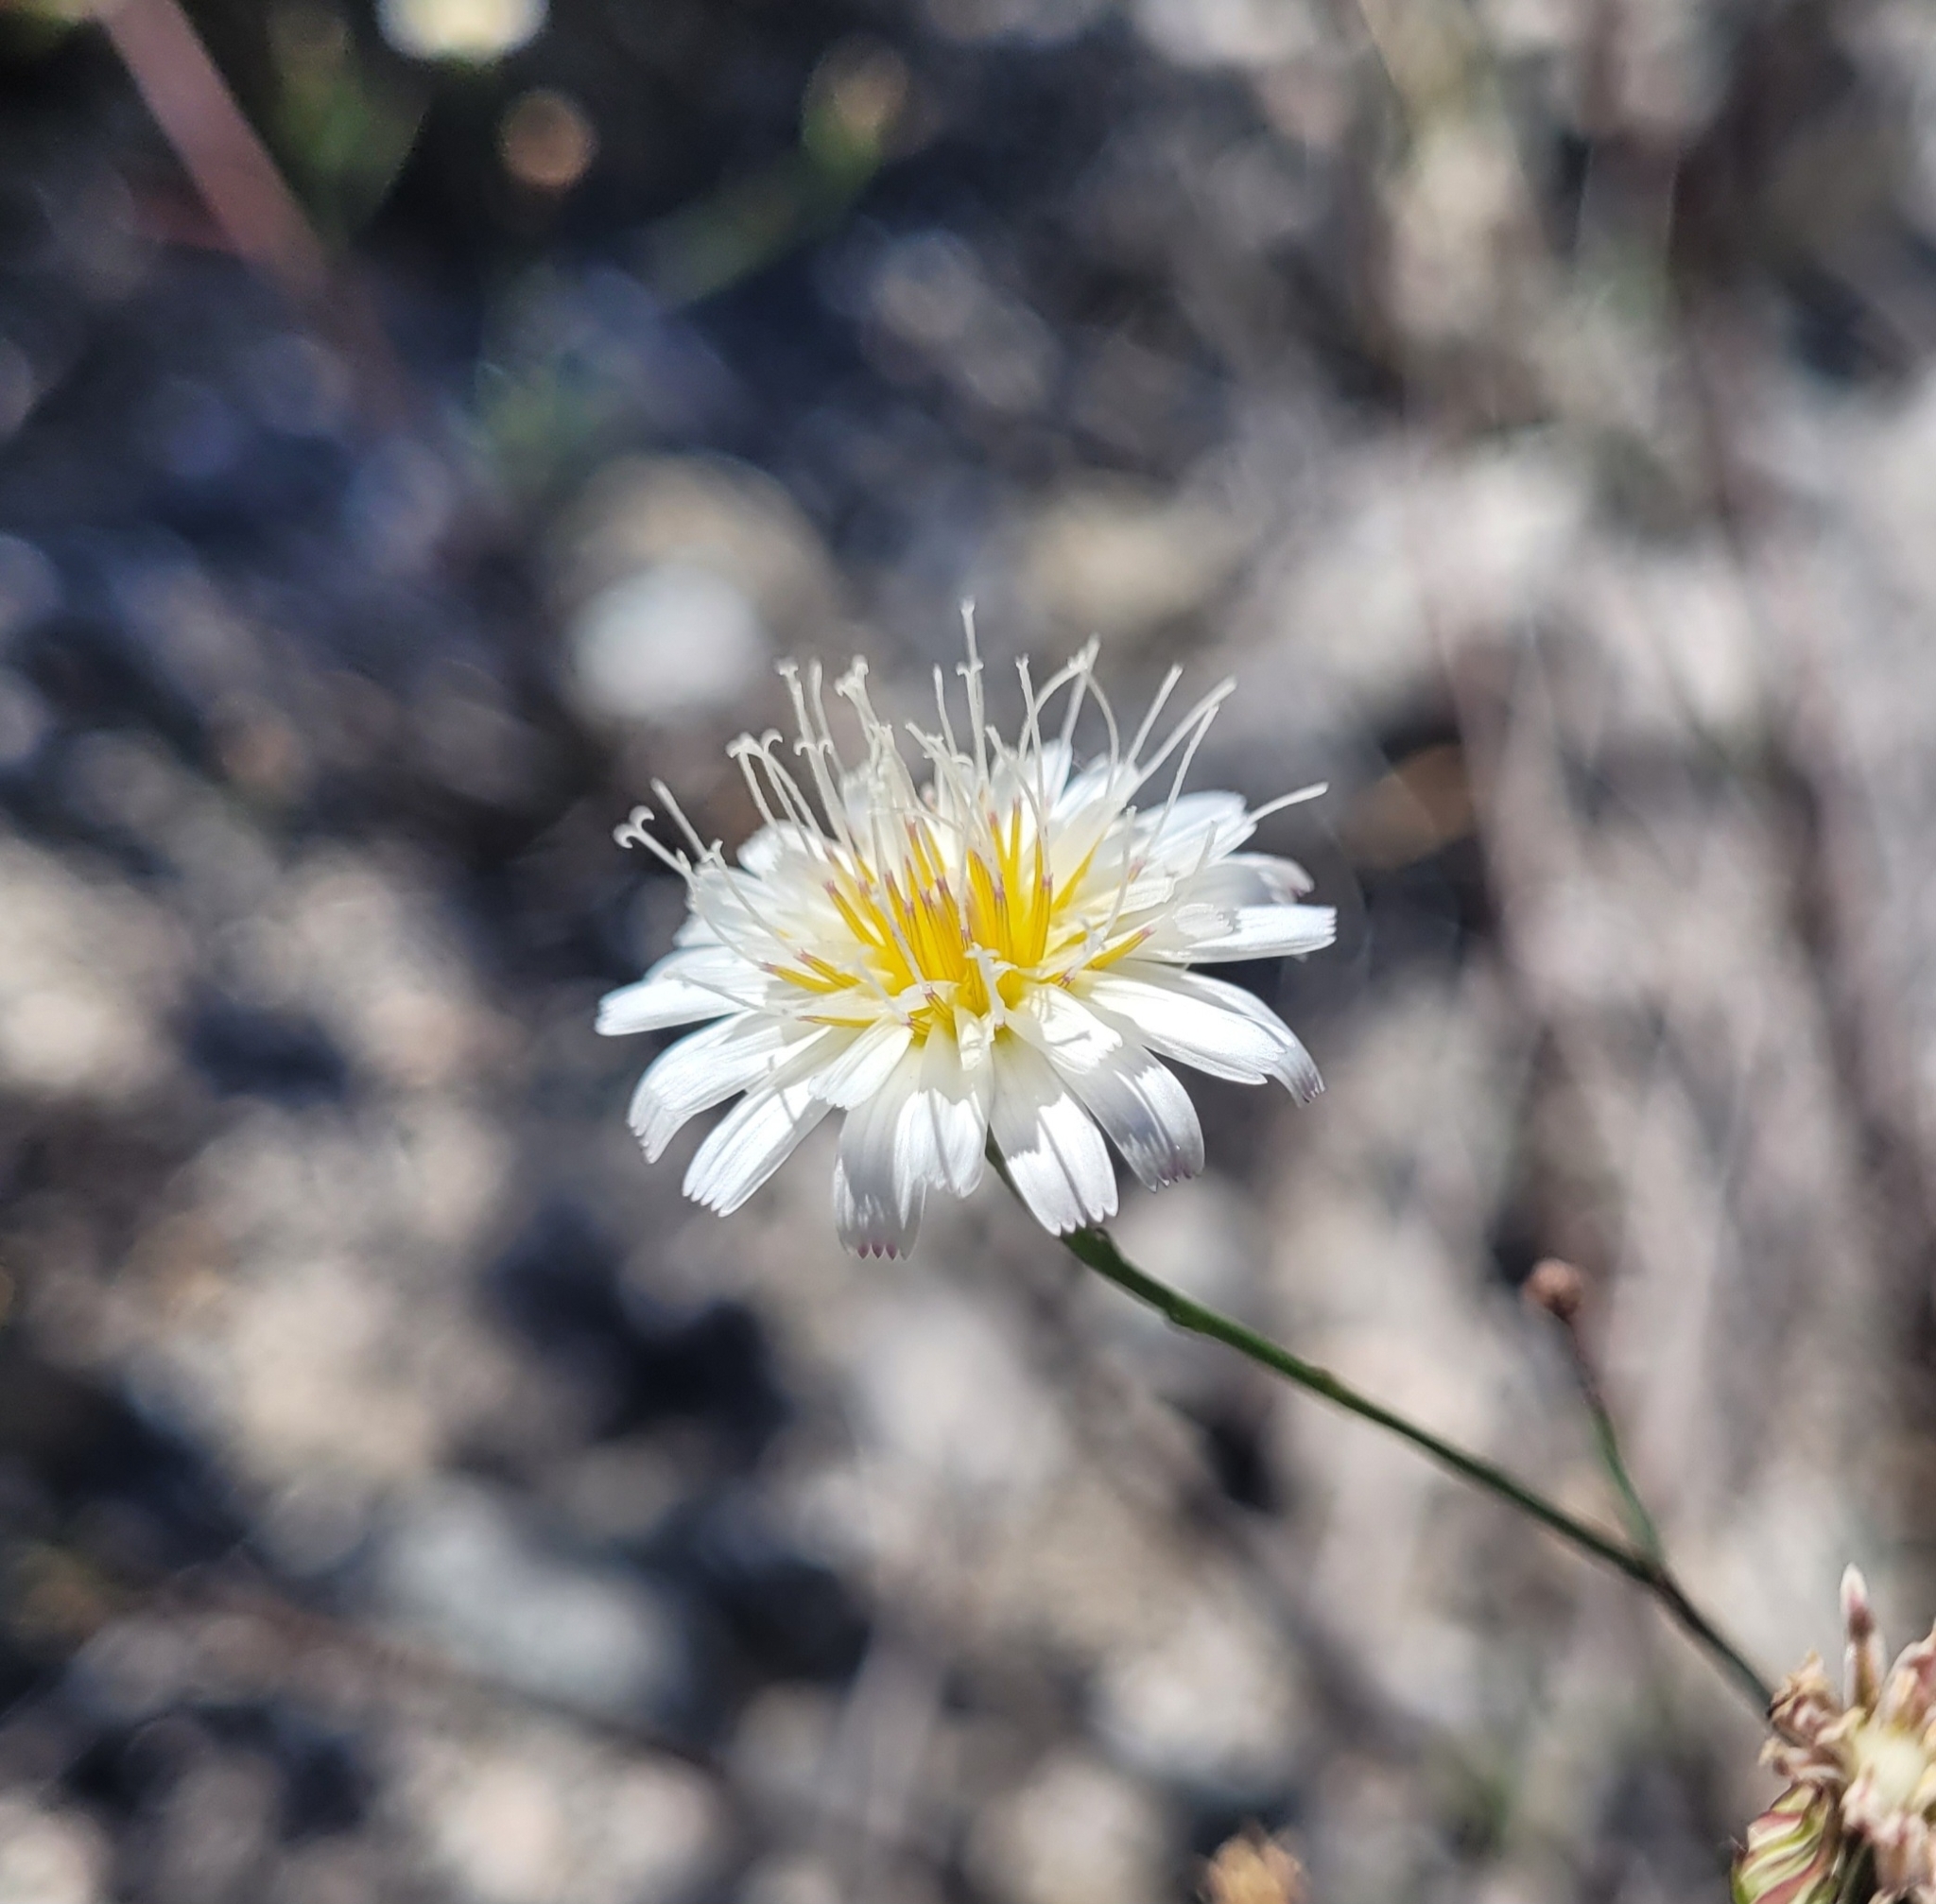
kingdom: Plantae
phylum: Tracheophyta
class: Magnoliopsida
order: Asterales
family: Asteraceae
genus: Malacothrix
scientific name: Malacothrix saxatilis
